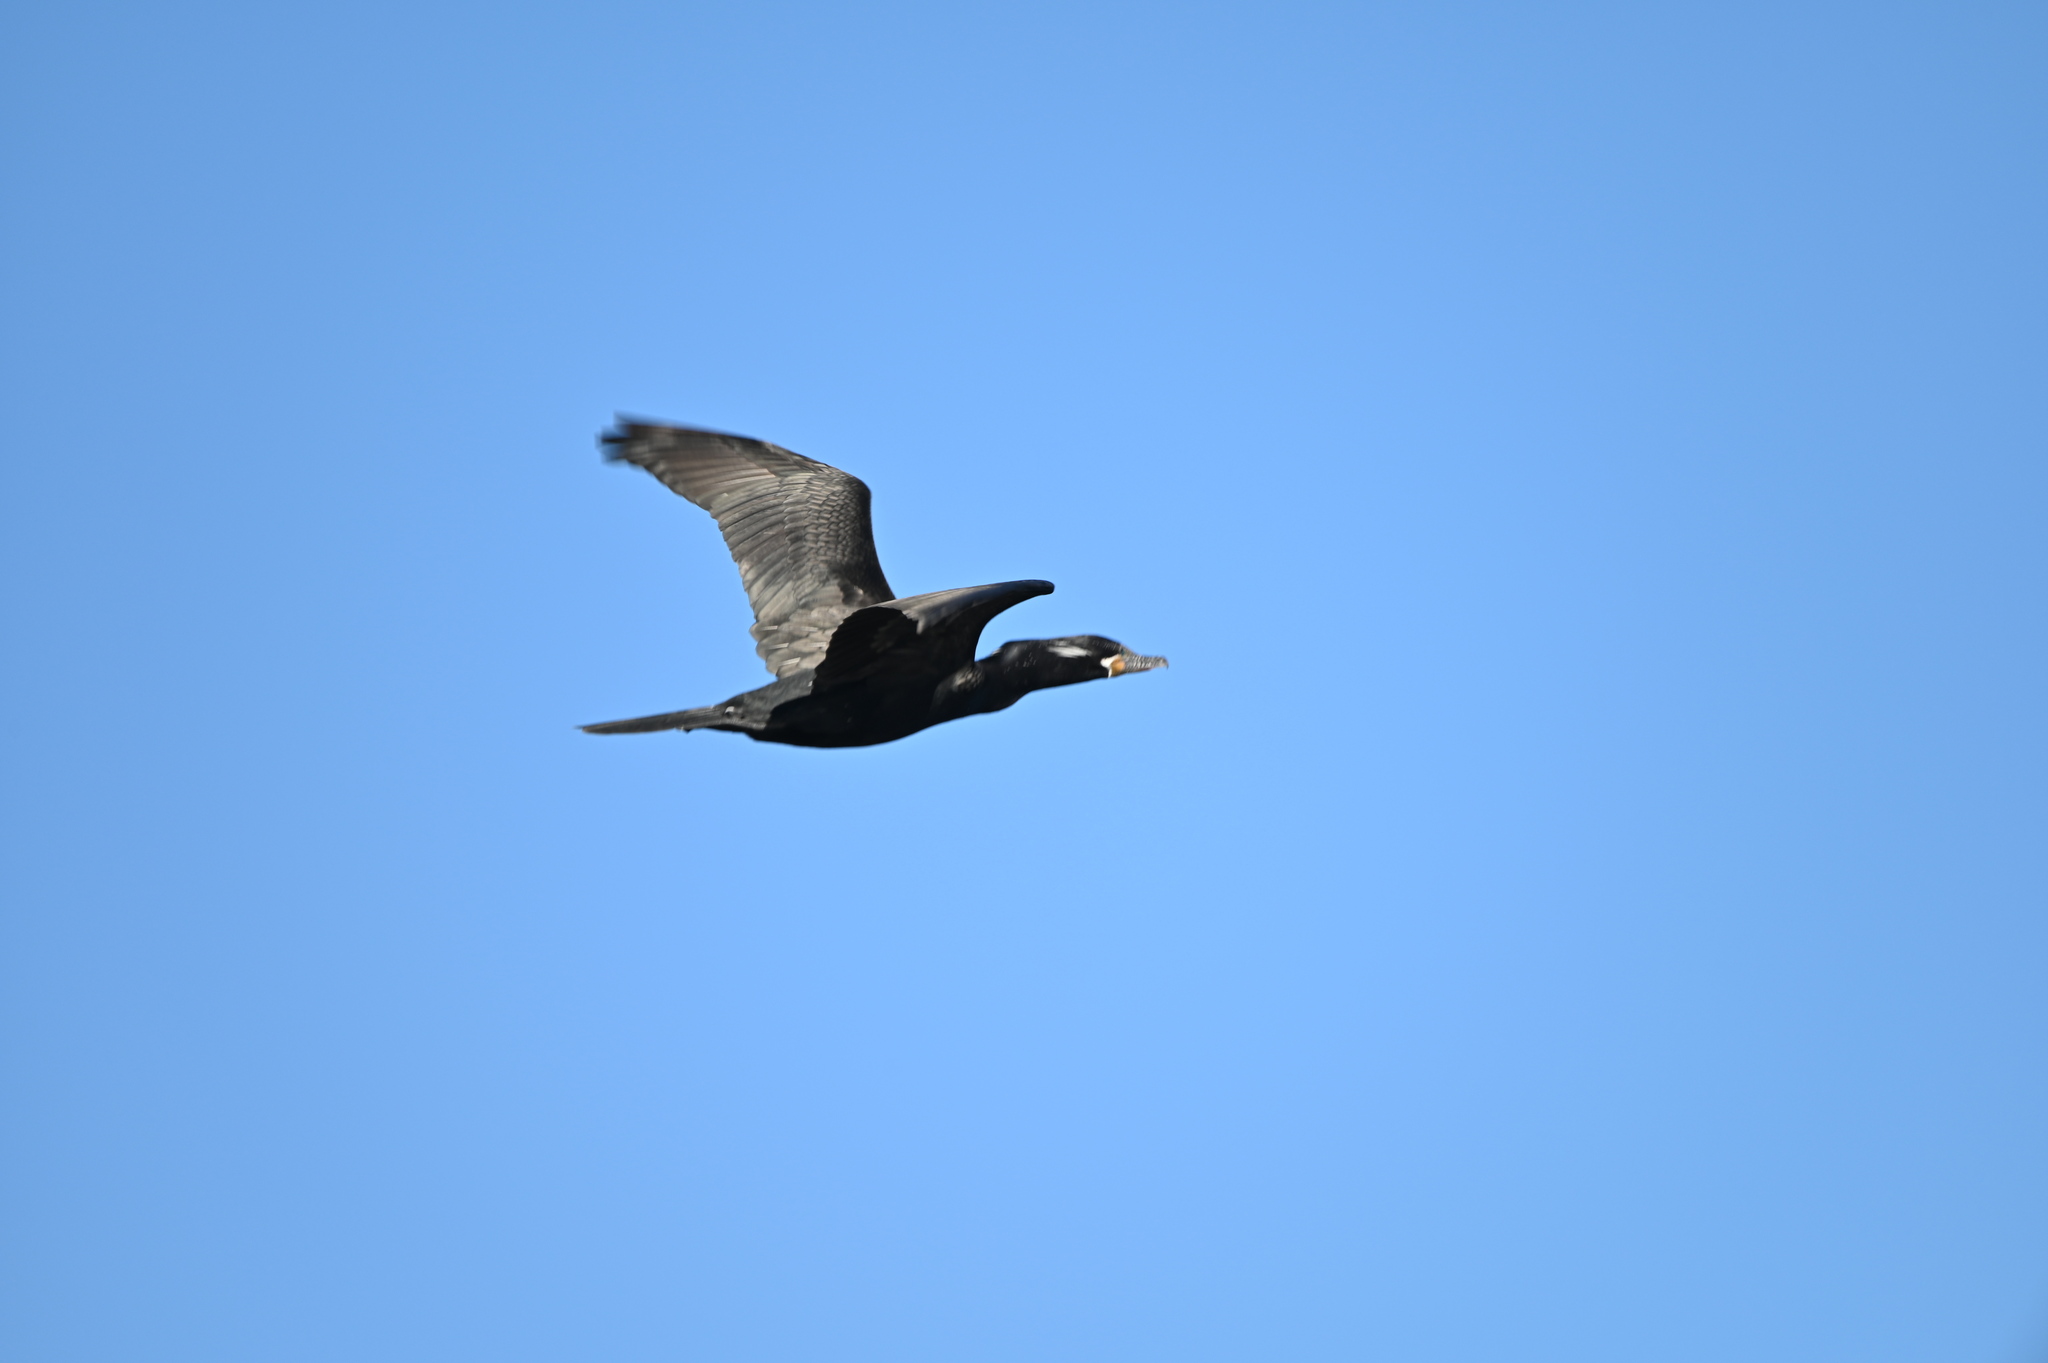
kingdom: Animalia
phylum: Chordata
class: Aves
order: Suliformes
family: Phalacrocoracidae
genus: Phalacrocorax
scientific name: Phalacrocorax brasilianus
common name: Neotropic cormorant
